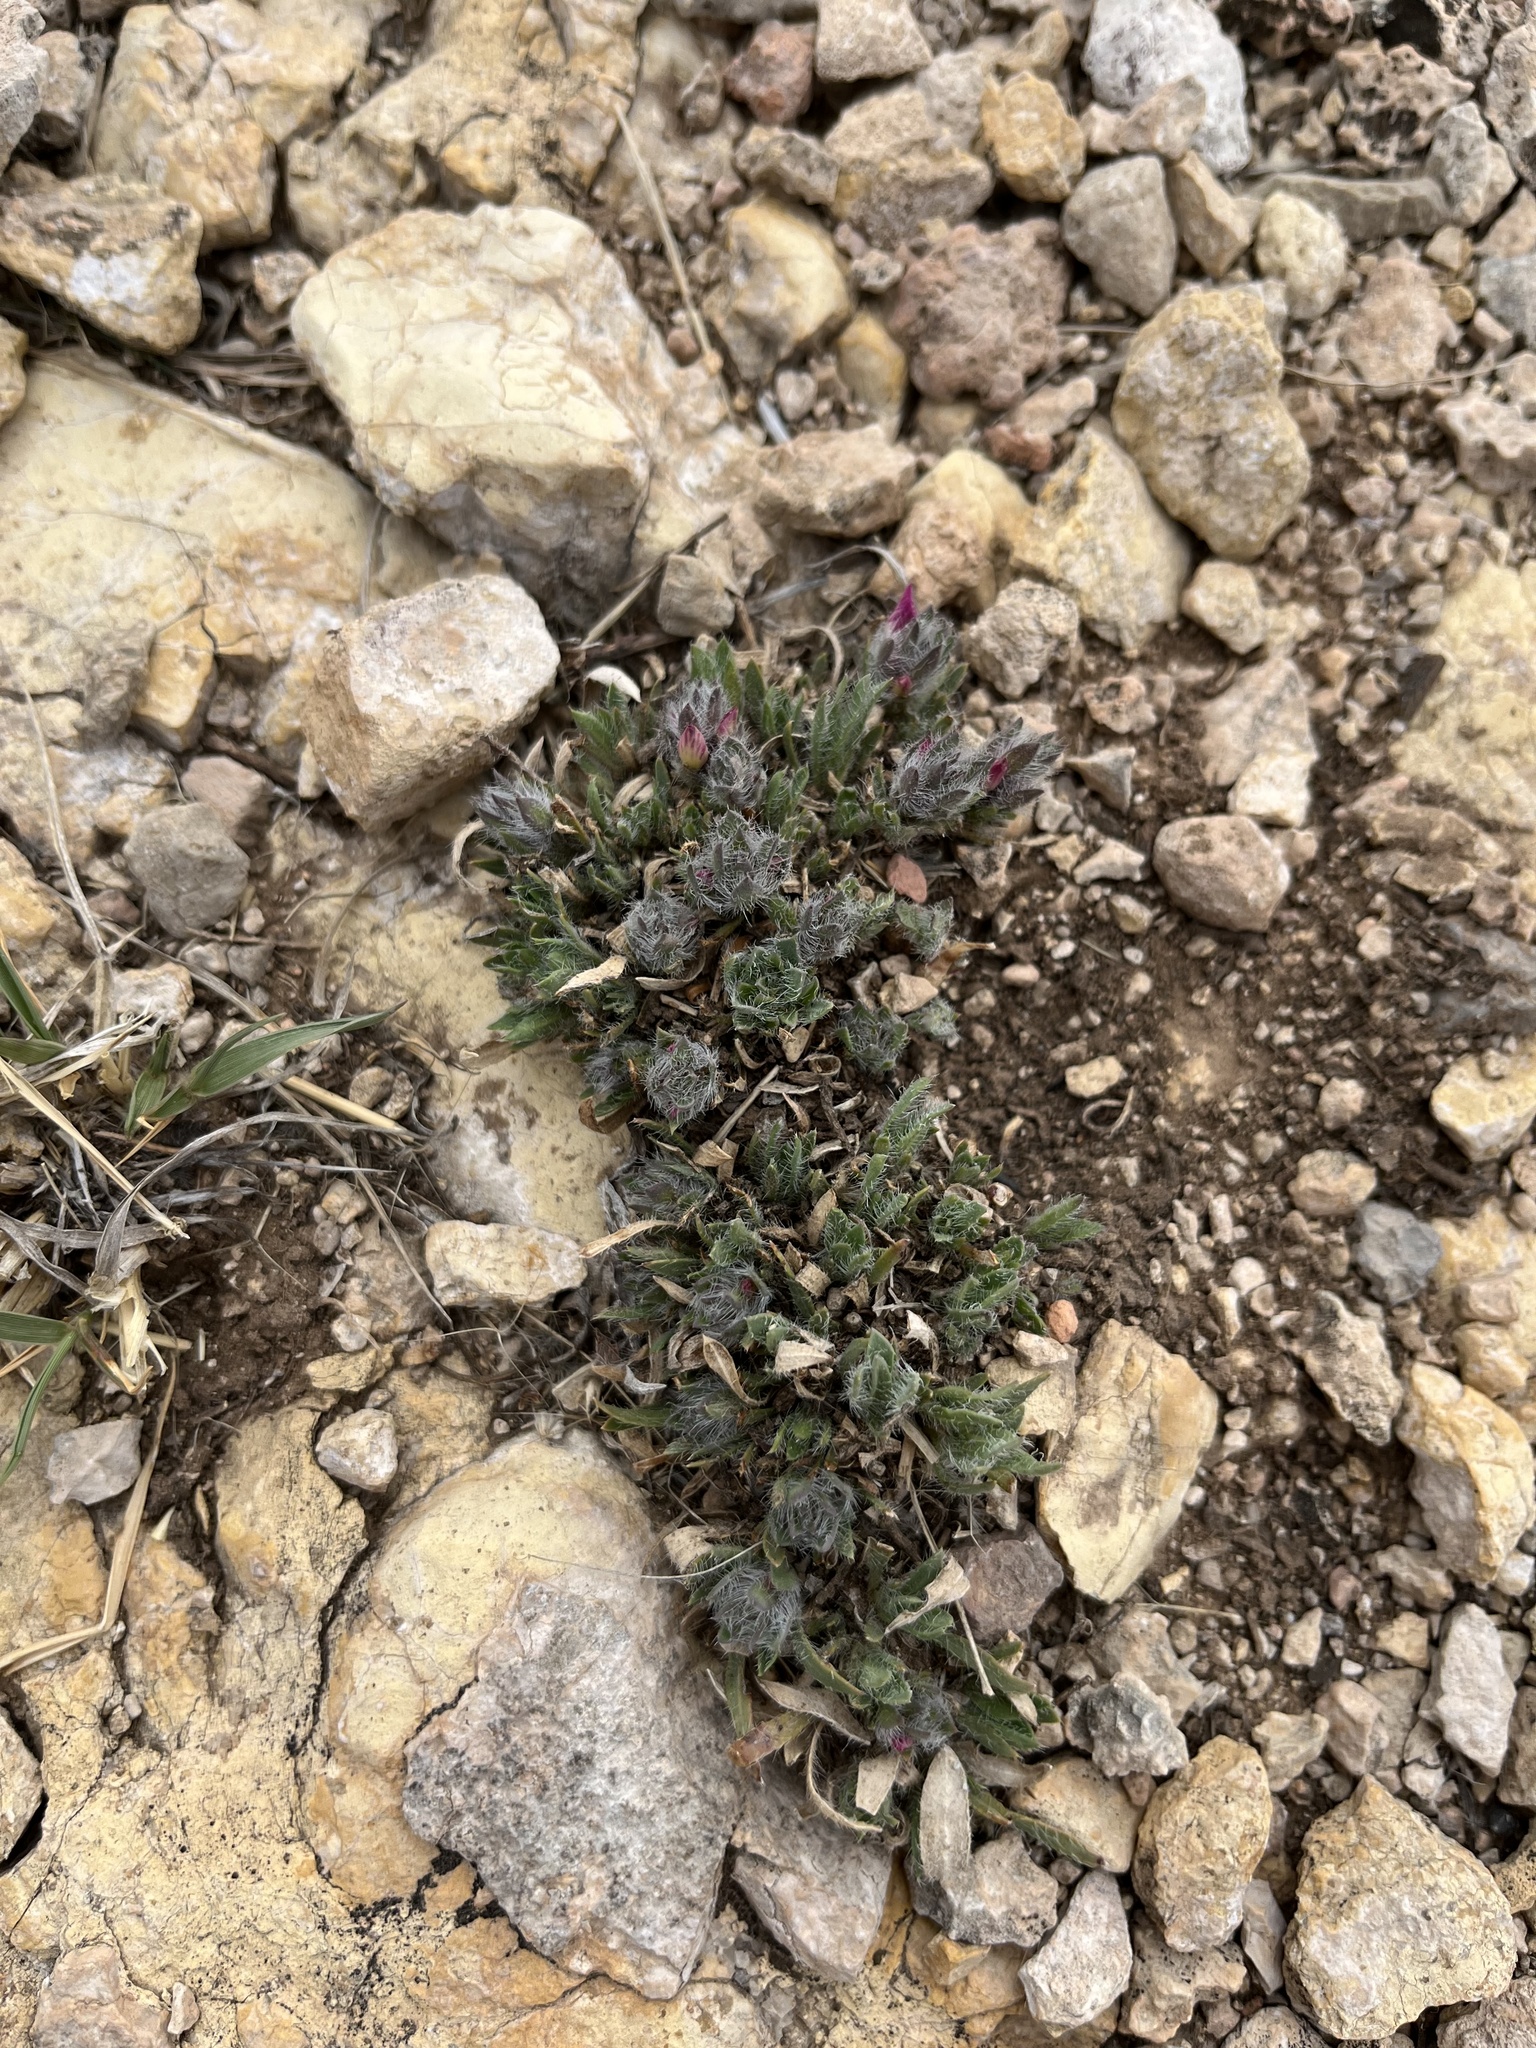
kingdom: Plantae
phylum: Tracheophyta
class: Magnoliopsida
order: Lamiales
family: Acanthaceae
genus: Stenandrium
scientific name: Stenandrium barbatum
